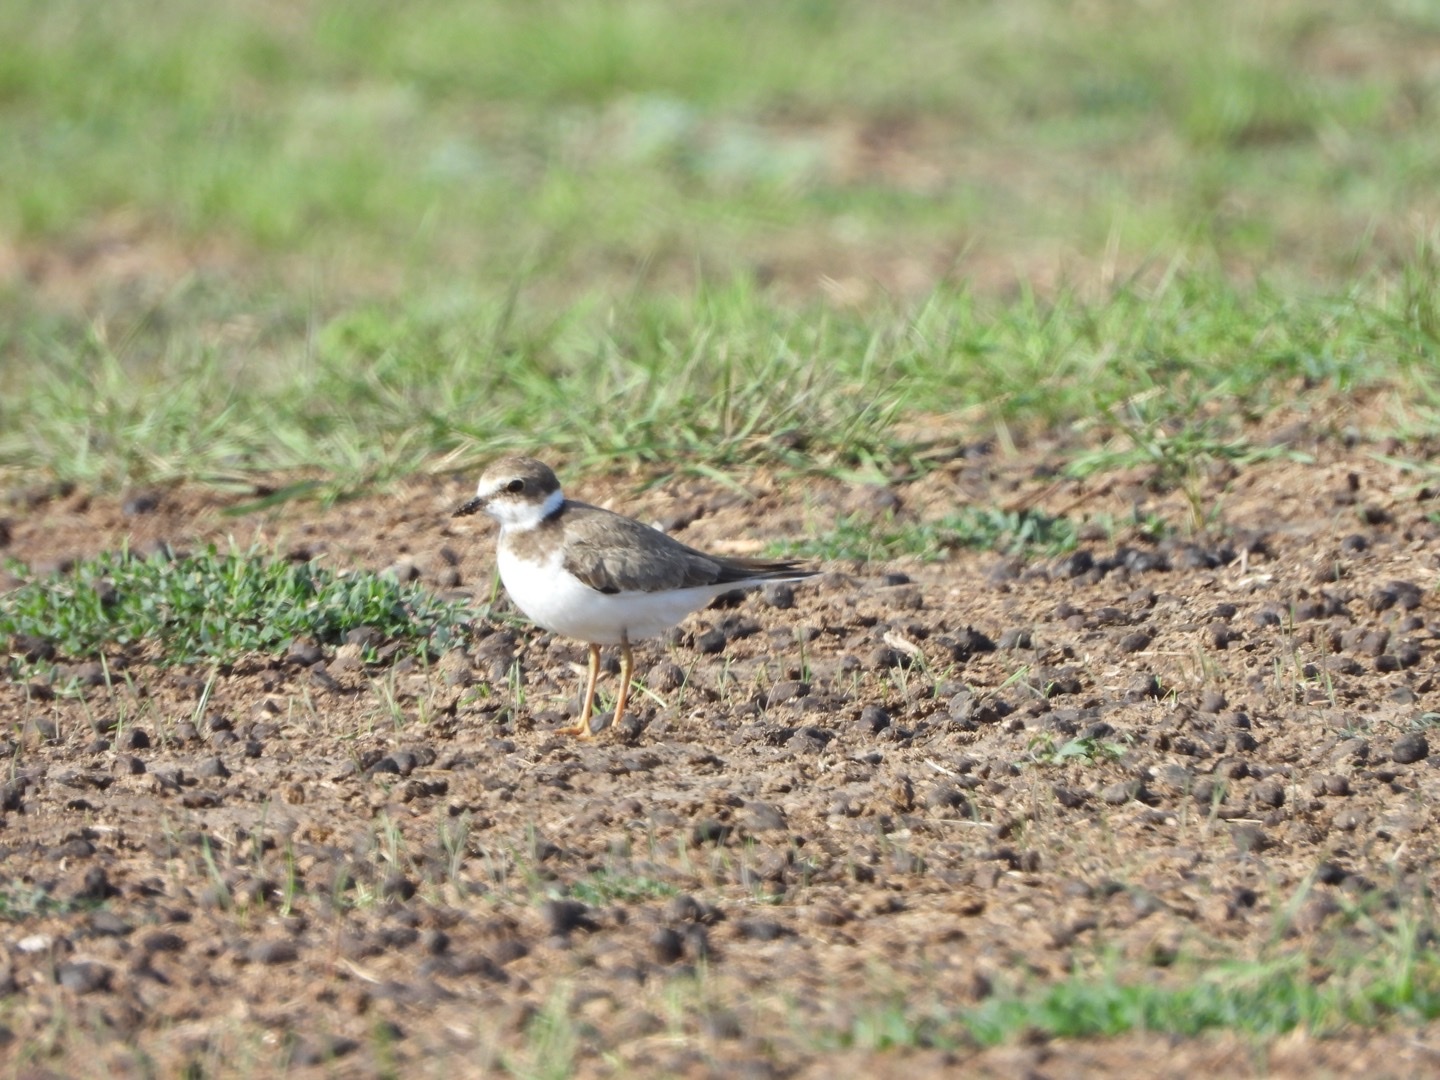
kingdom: Animalia
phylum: Chordata
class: Aves
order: Charadriiformes
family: Charadriidae
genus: Charadrius
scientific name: Charadrius dubius
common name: Little ringed plover
